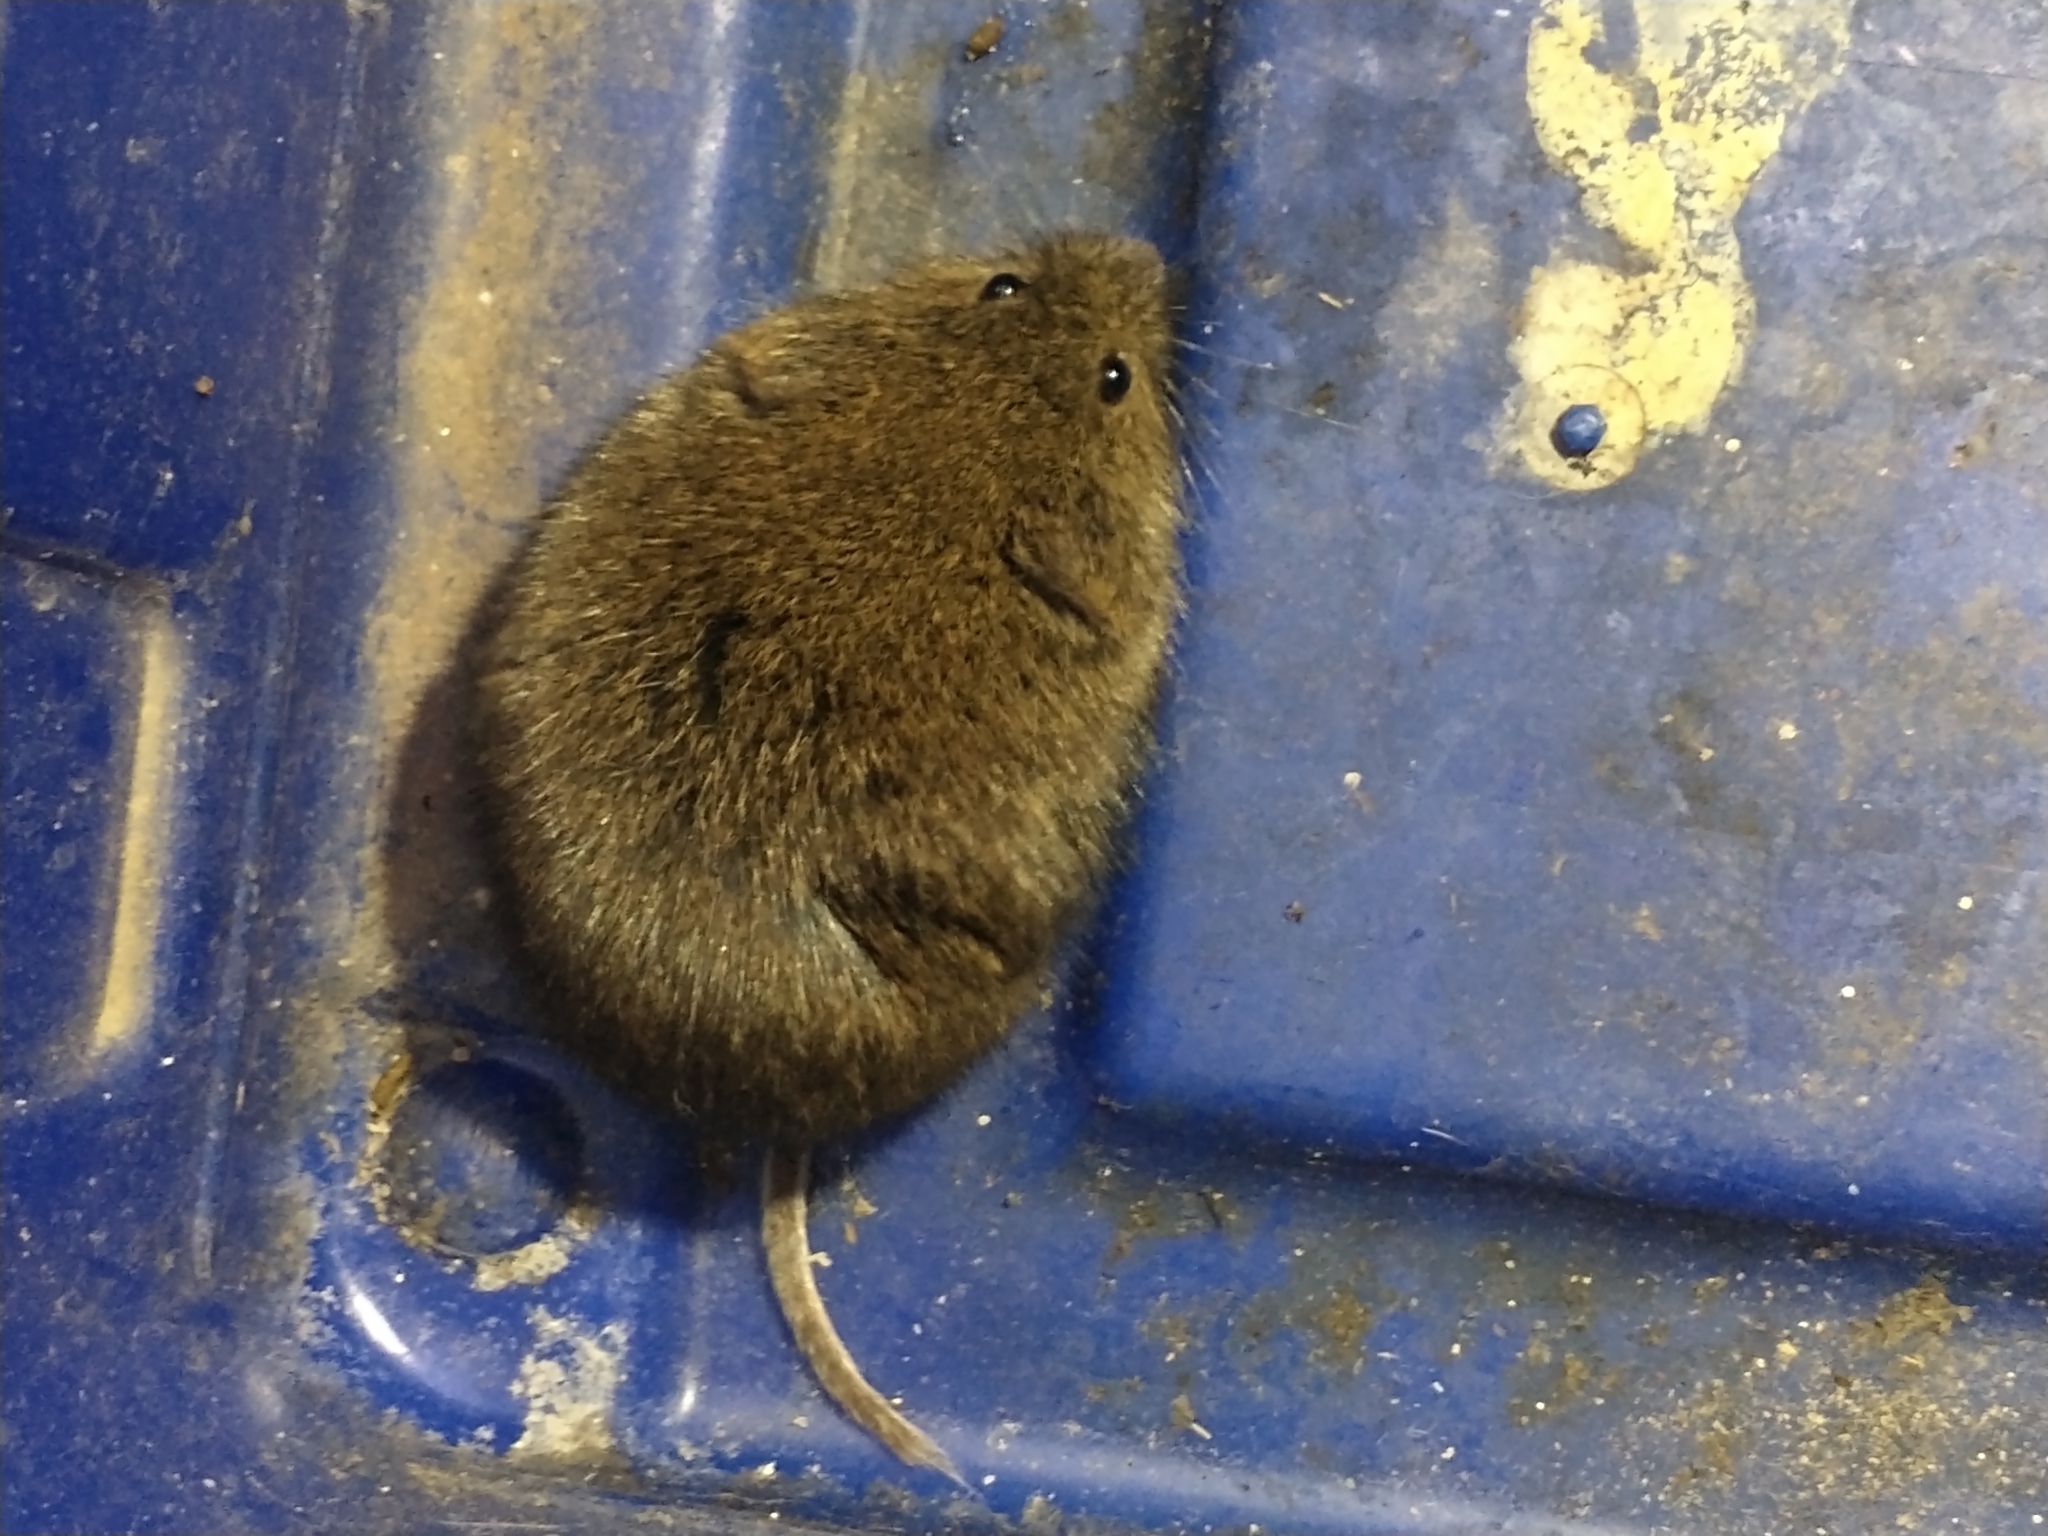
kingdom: Animalia
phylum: Chordata
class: Mammalia
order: Rodentia
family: Cricetidae
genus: Microtus
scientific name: Microtus pennsylvanicus
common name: Meadow vole
